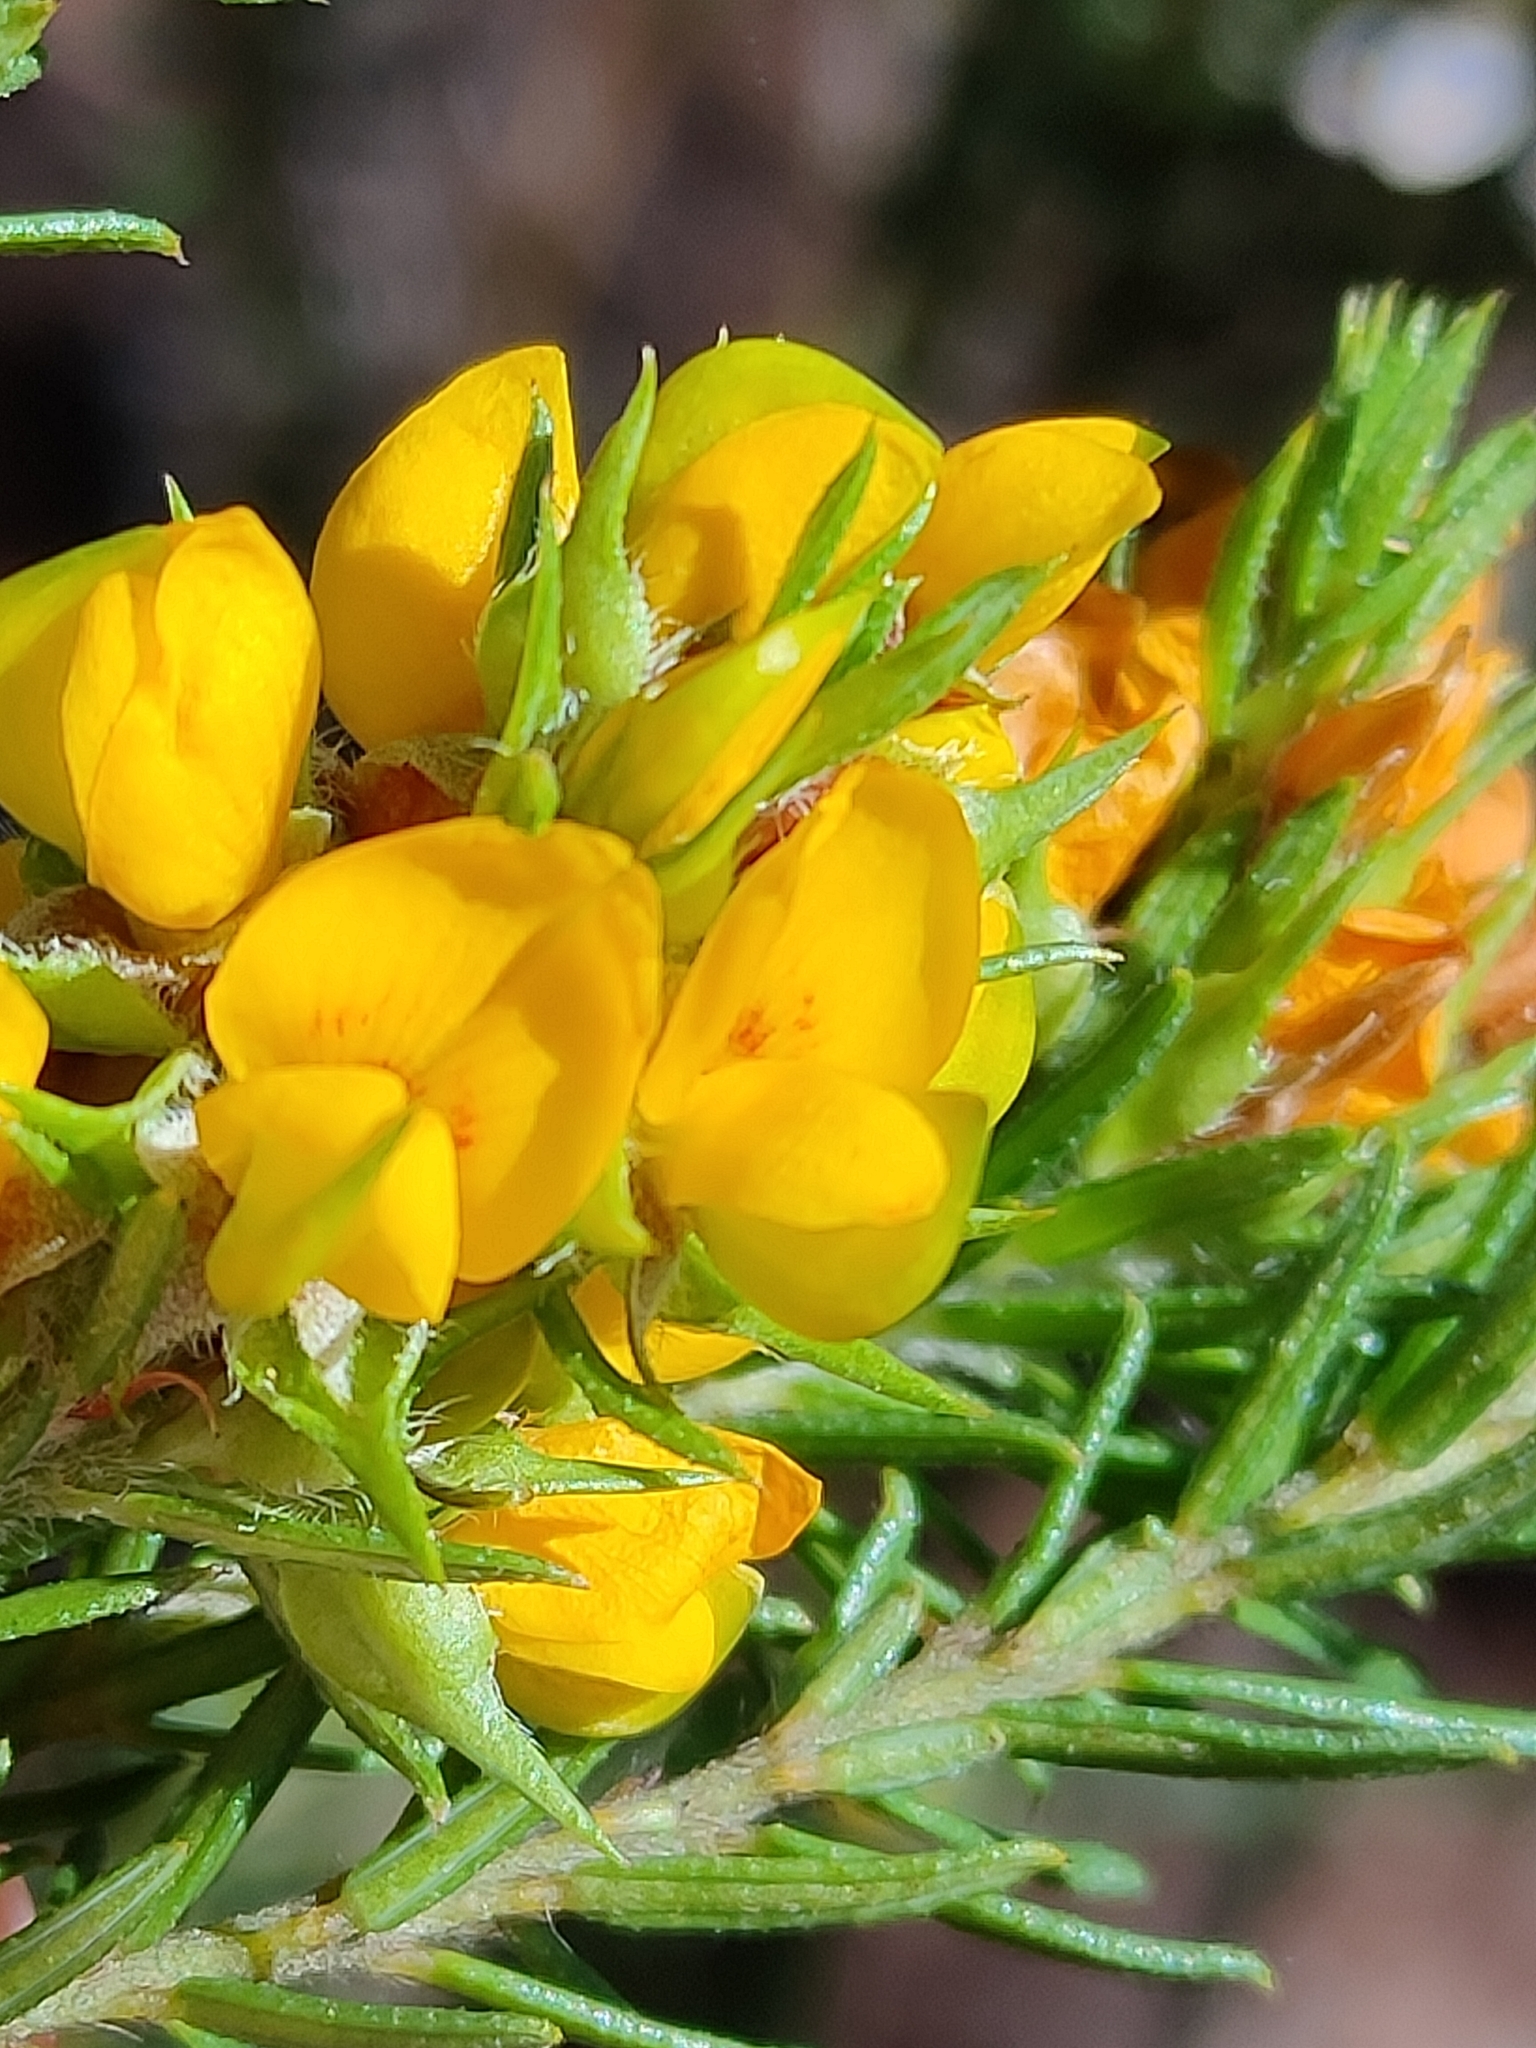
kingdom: Plantae
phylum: Tracheophyta
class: Magnoliopsida
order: Fabales
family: Fabaceae
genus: Phyllota
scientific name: Phyllota phylicoides
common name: Heath phyllota
